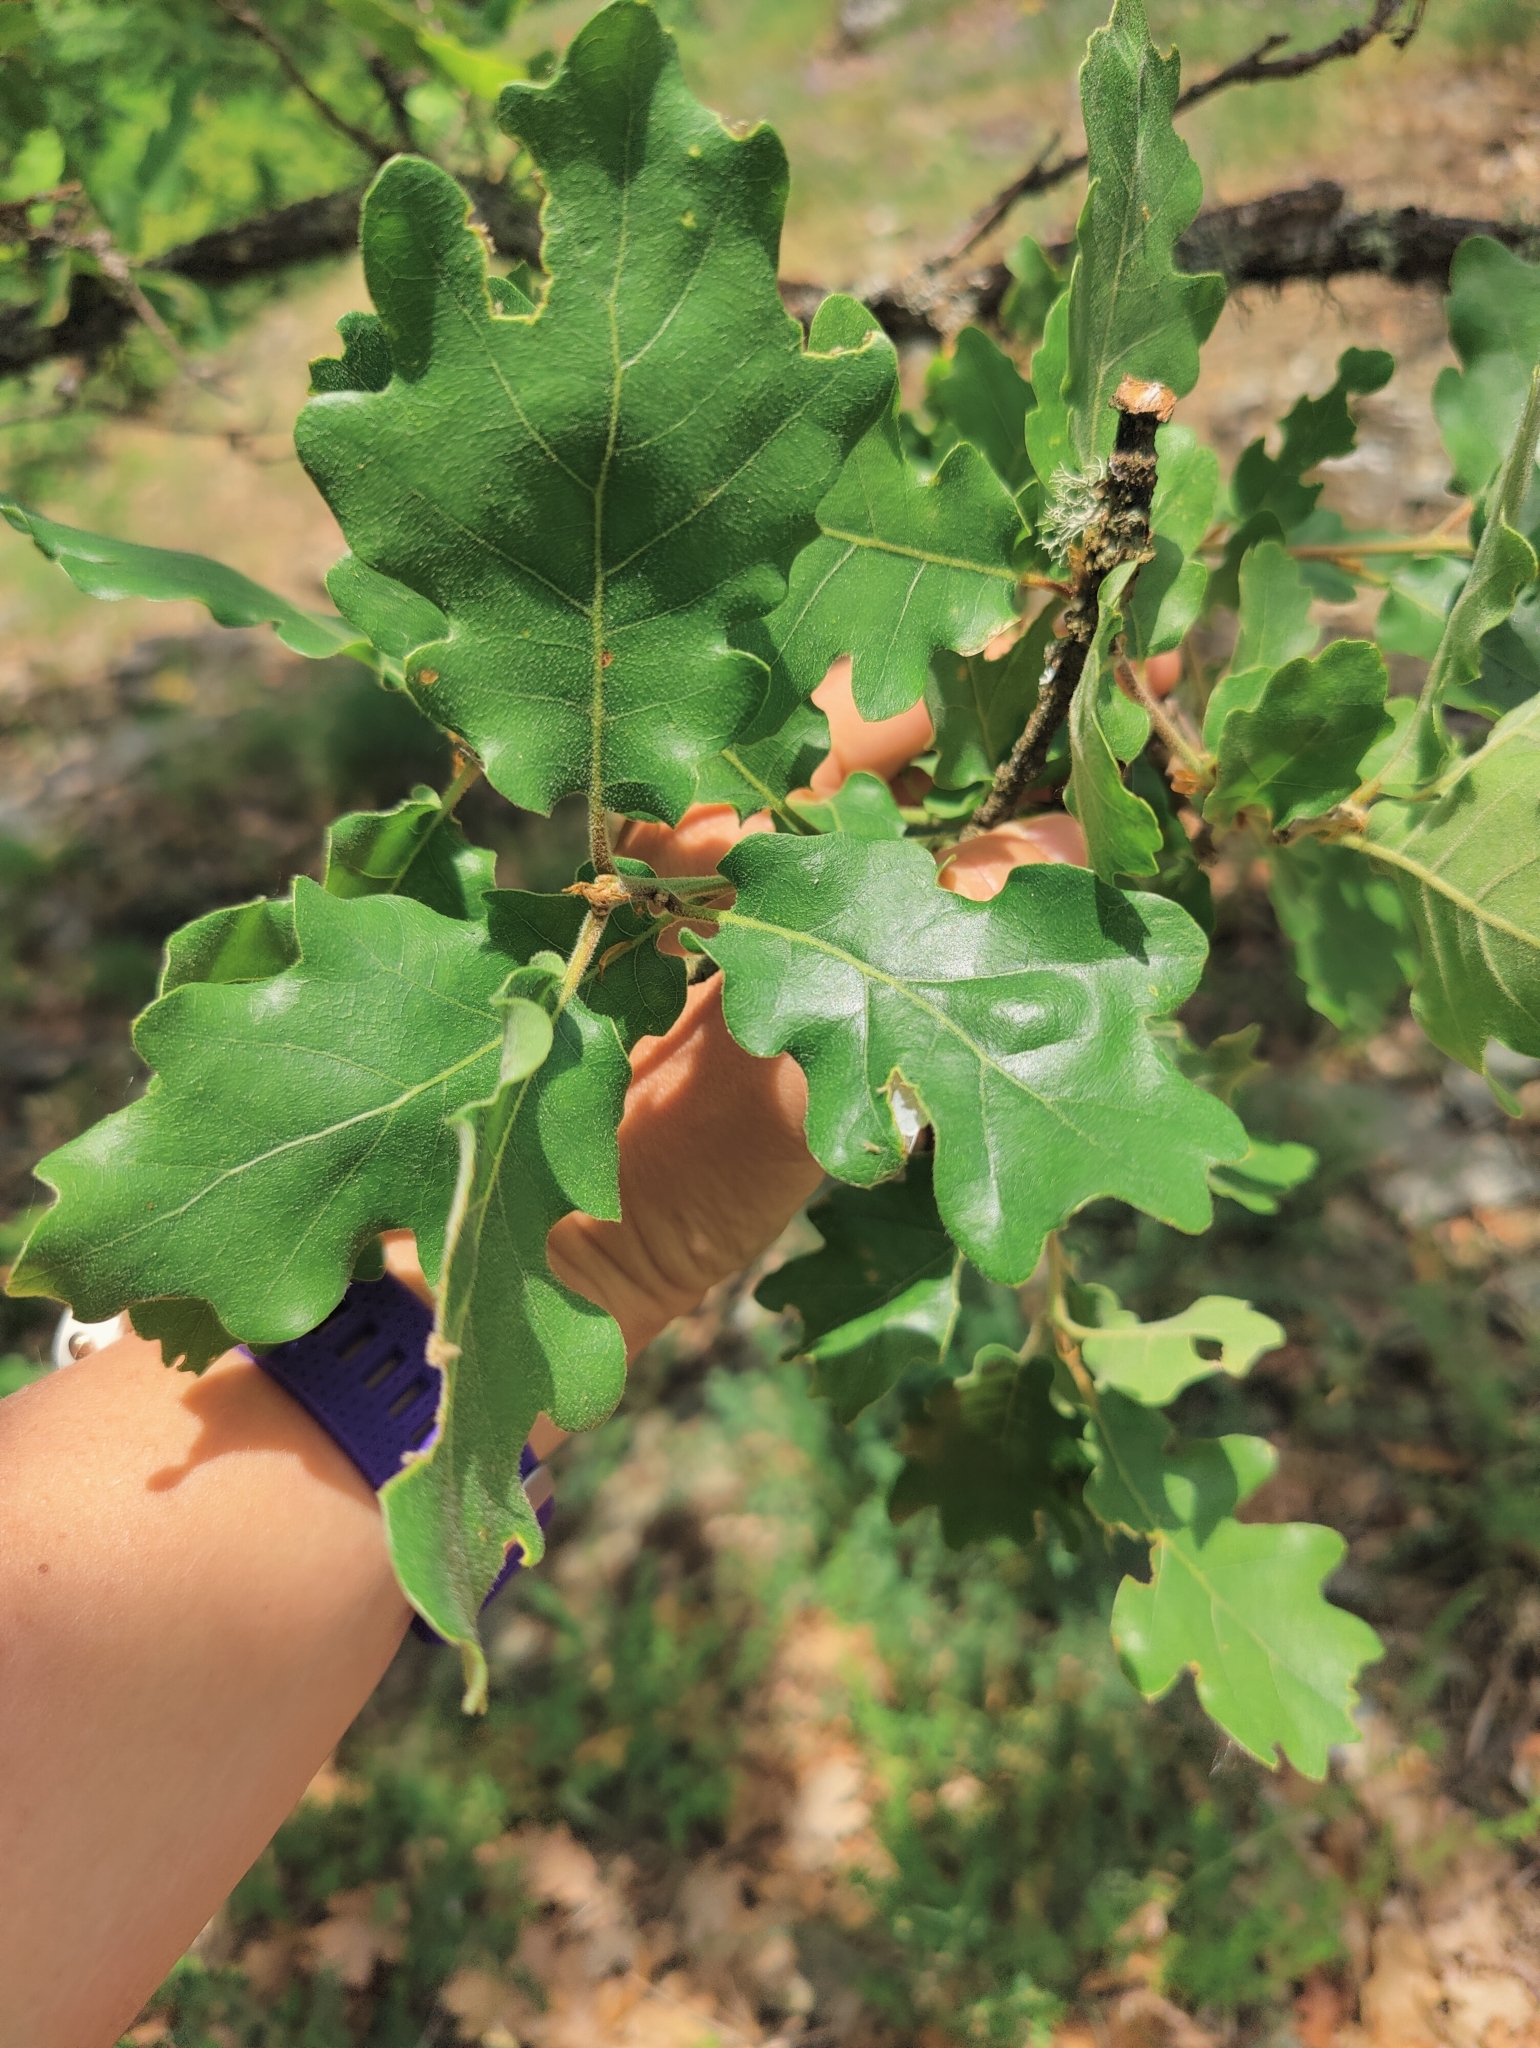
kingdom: Plantae
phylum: Tracheophyta
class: Magnoliopsida
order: Fagales
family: Fagaceae
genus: Quercus
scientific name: Quercus pubescens
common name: Downy oak
